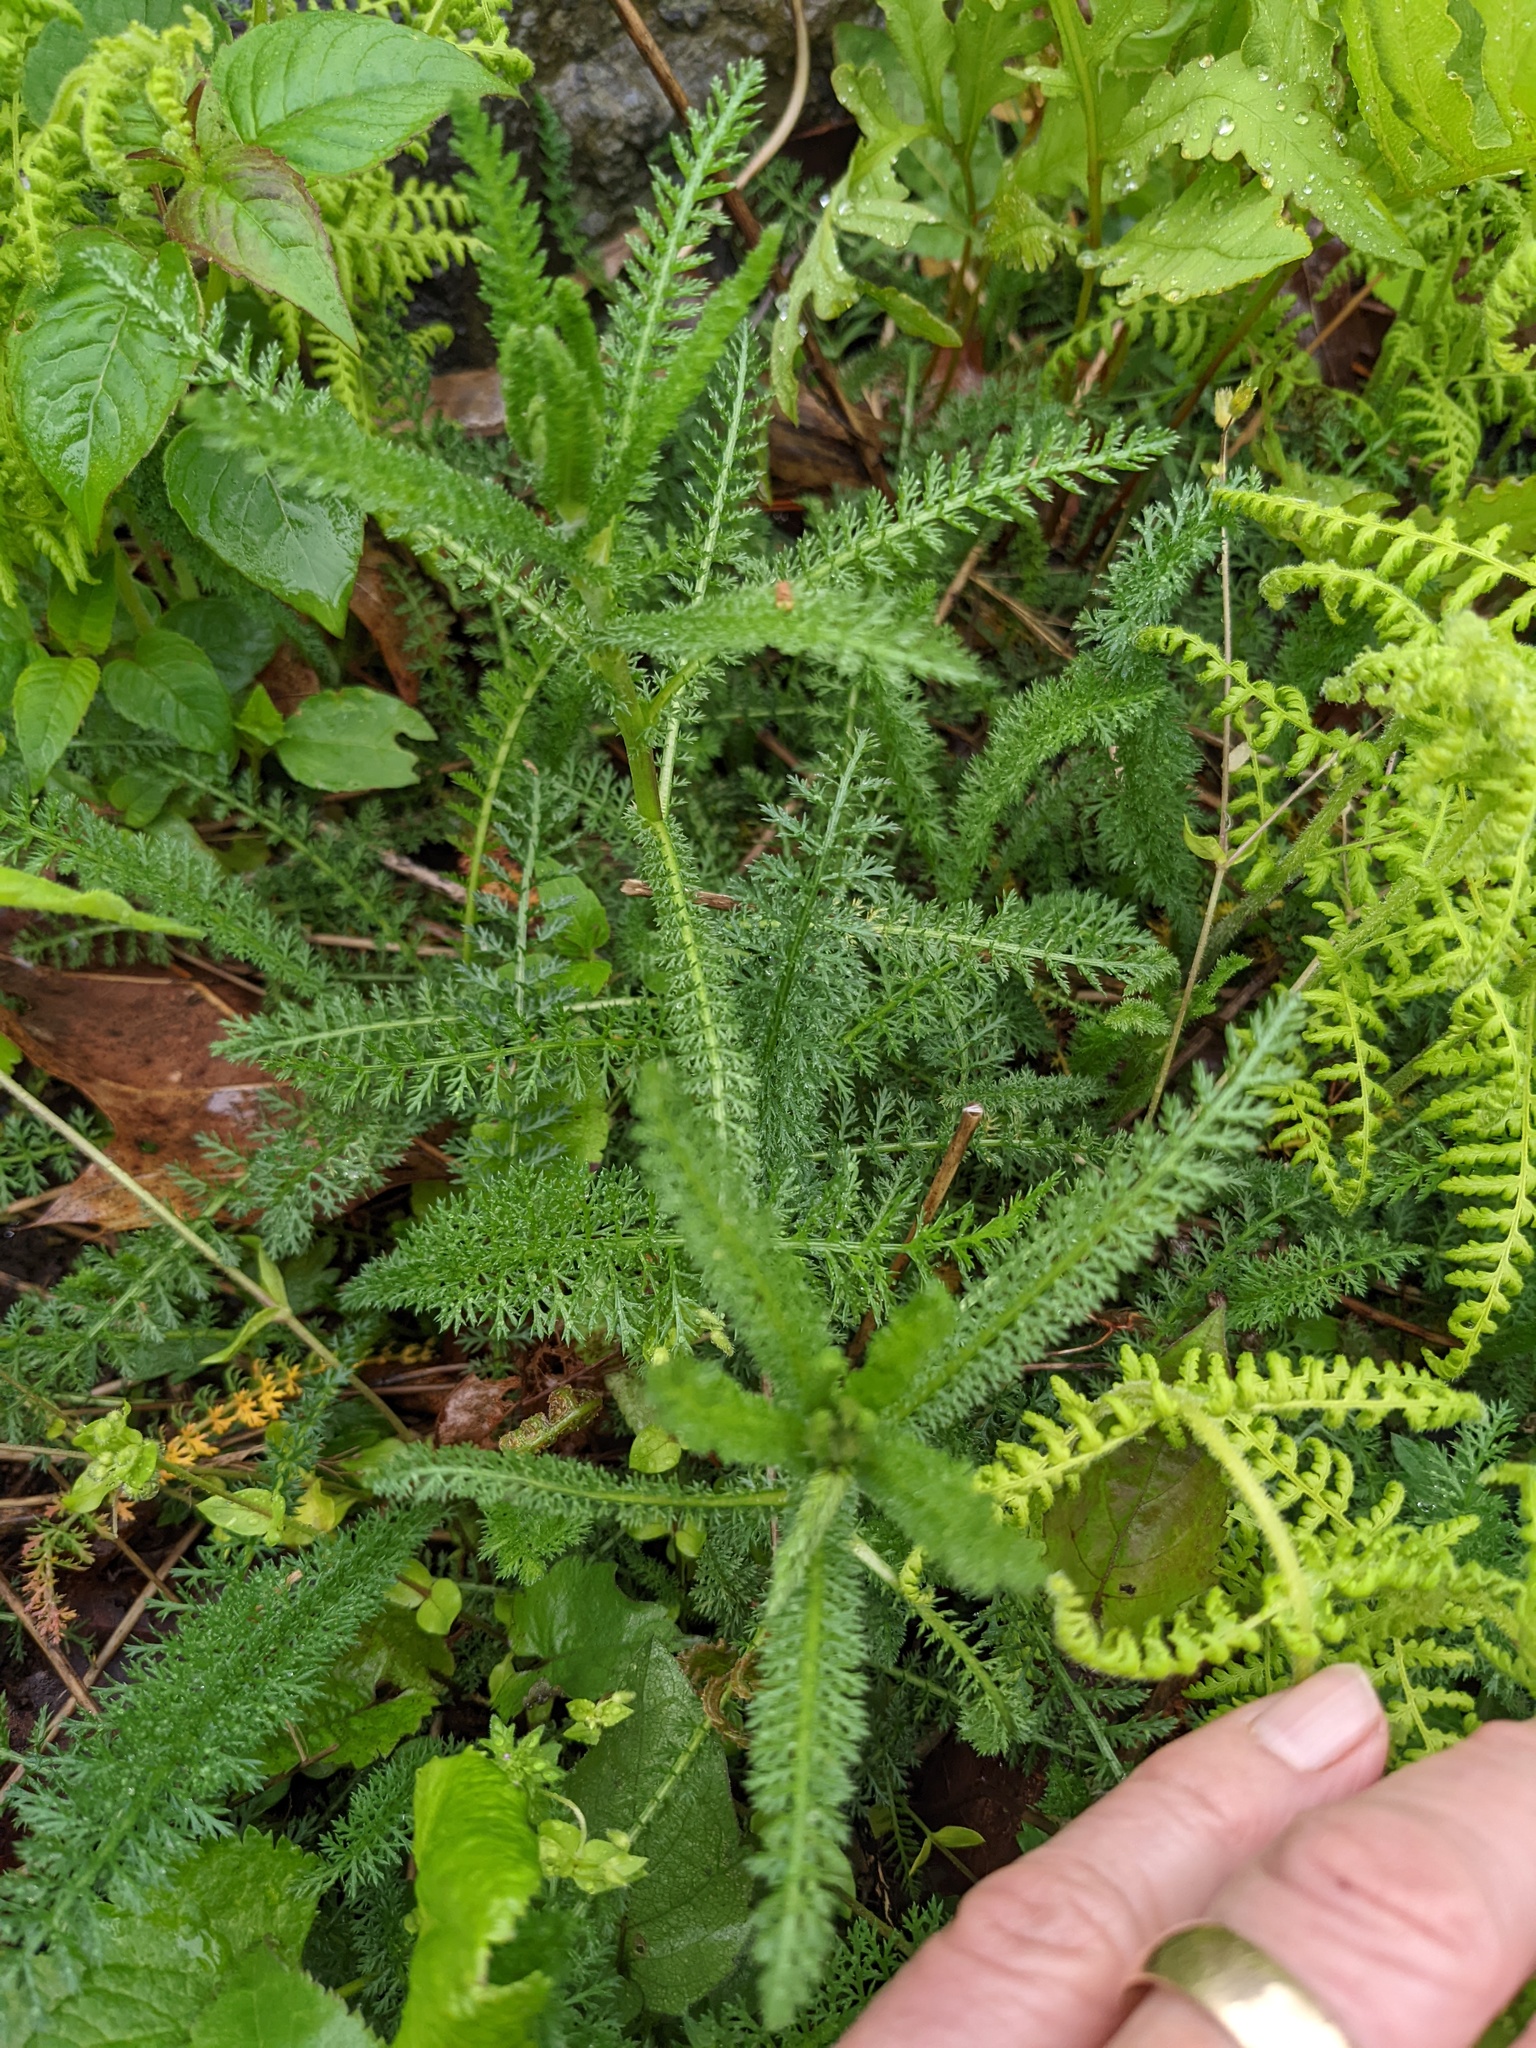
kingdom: Plantae
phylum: Tracheophyta
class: Magnoliopsida
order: Asterales
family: Asteraceae
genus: Achillea
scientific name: Achillea millefolium
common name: Yarrow
